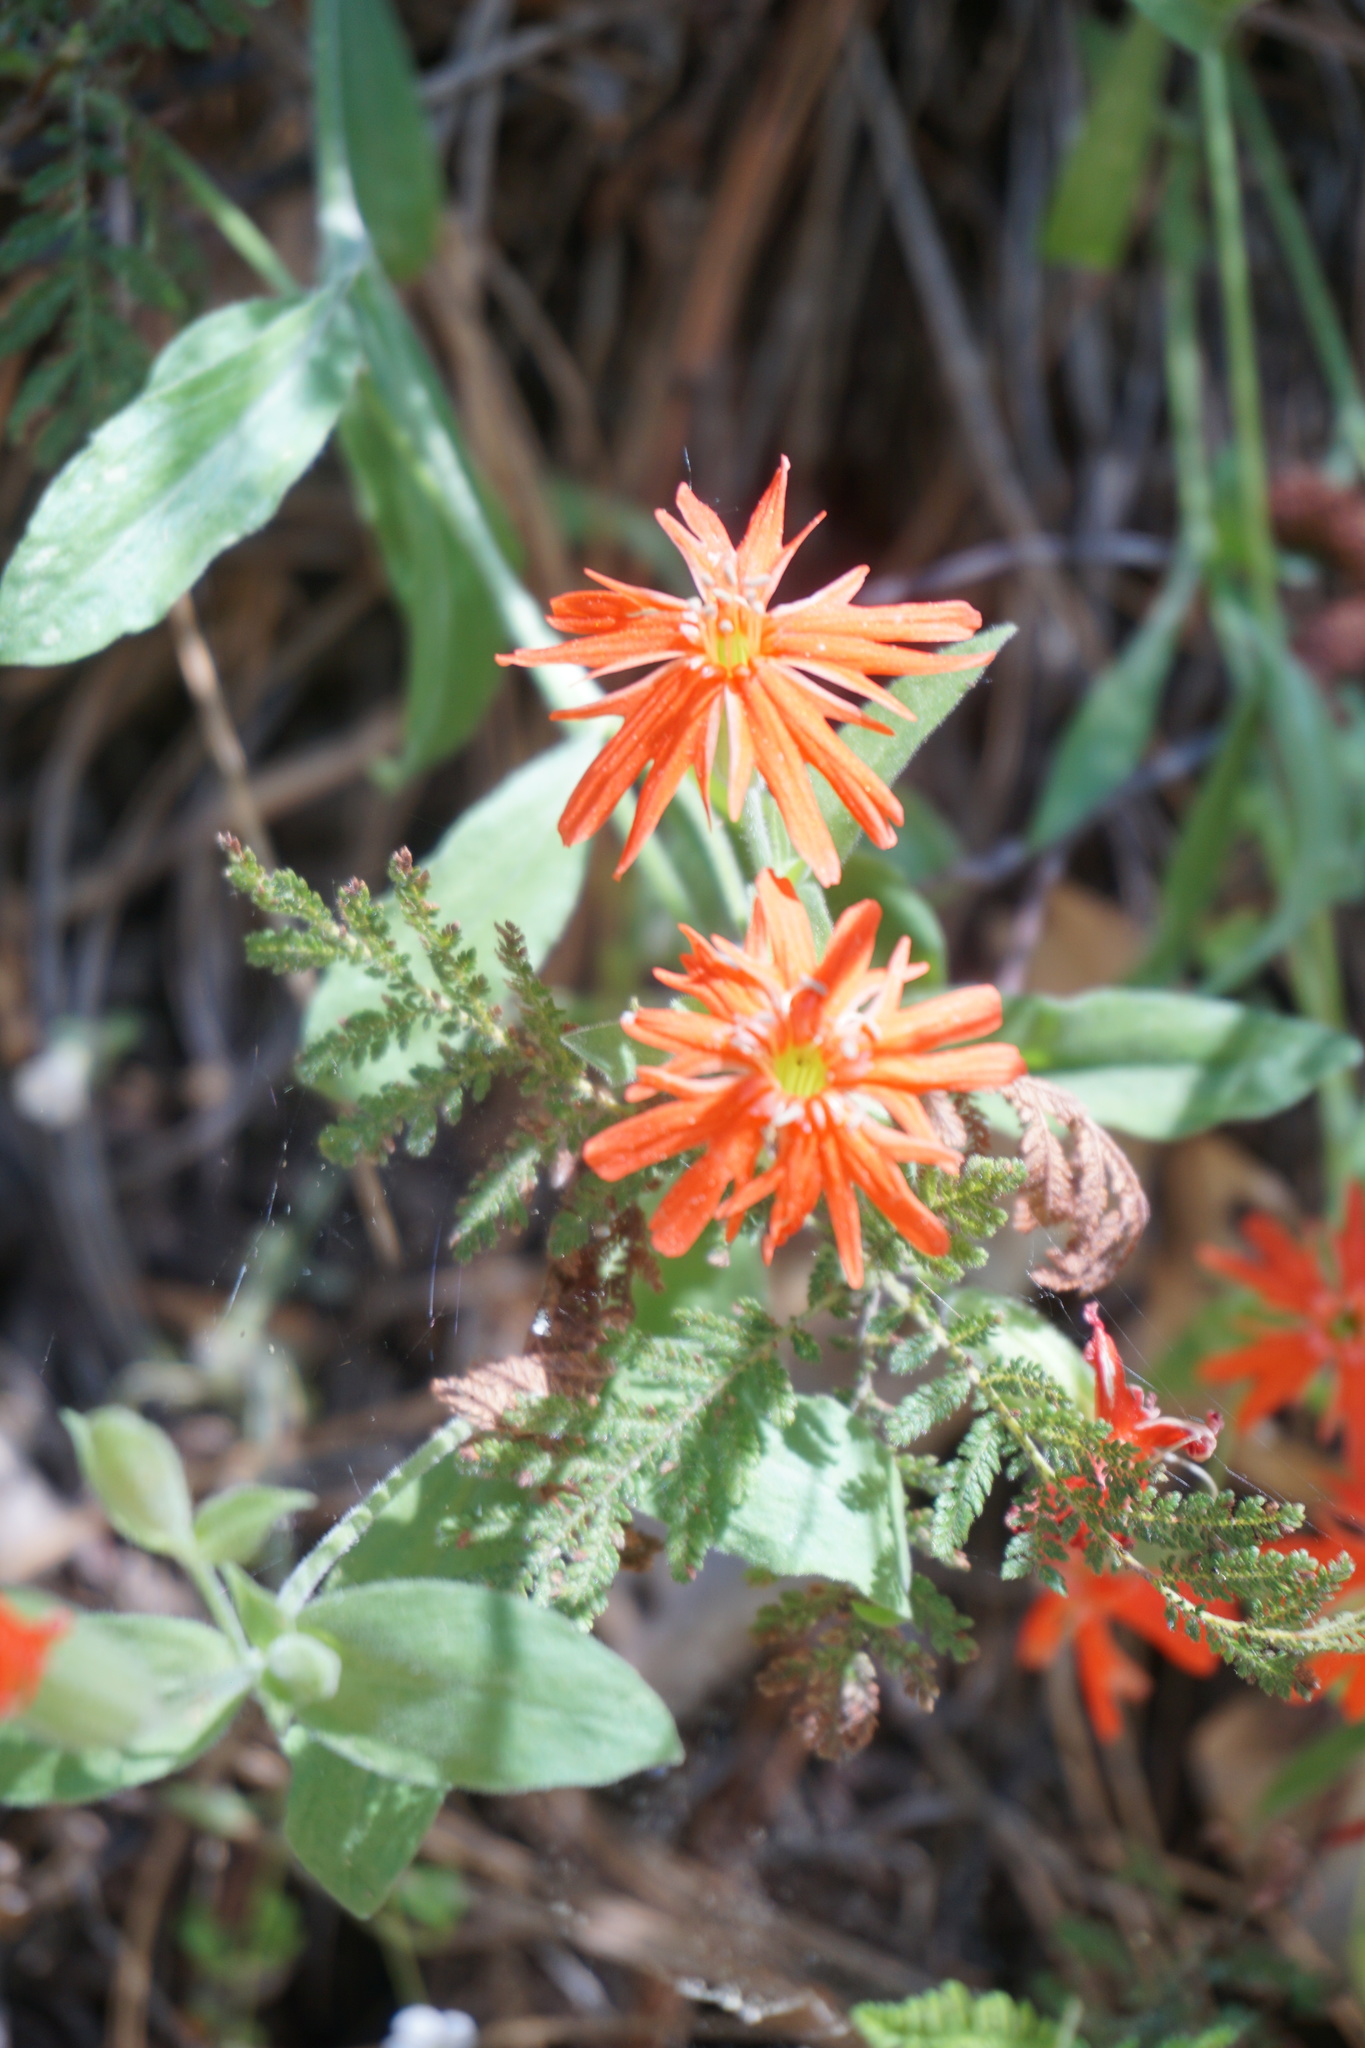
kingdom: Plantae
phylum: Tracheophyta
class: Magnoliopsida
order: Caryophyllales
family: Caryophyllaceae
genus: Silene
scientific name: Silene laciniata
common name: Indian-pink
